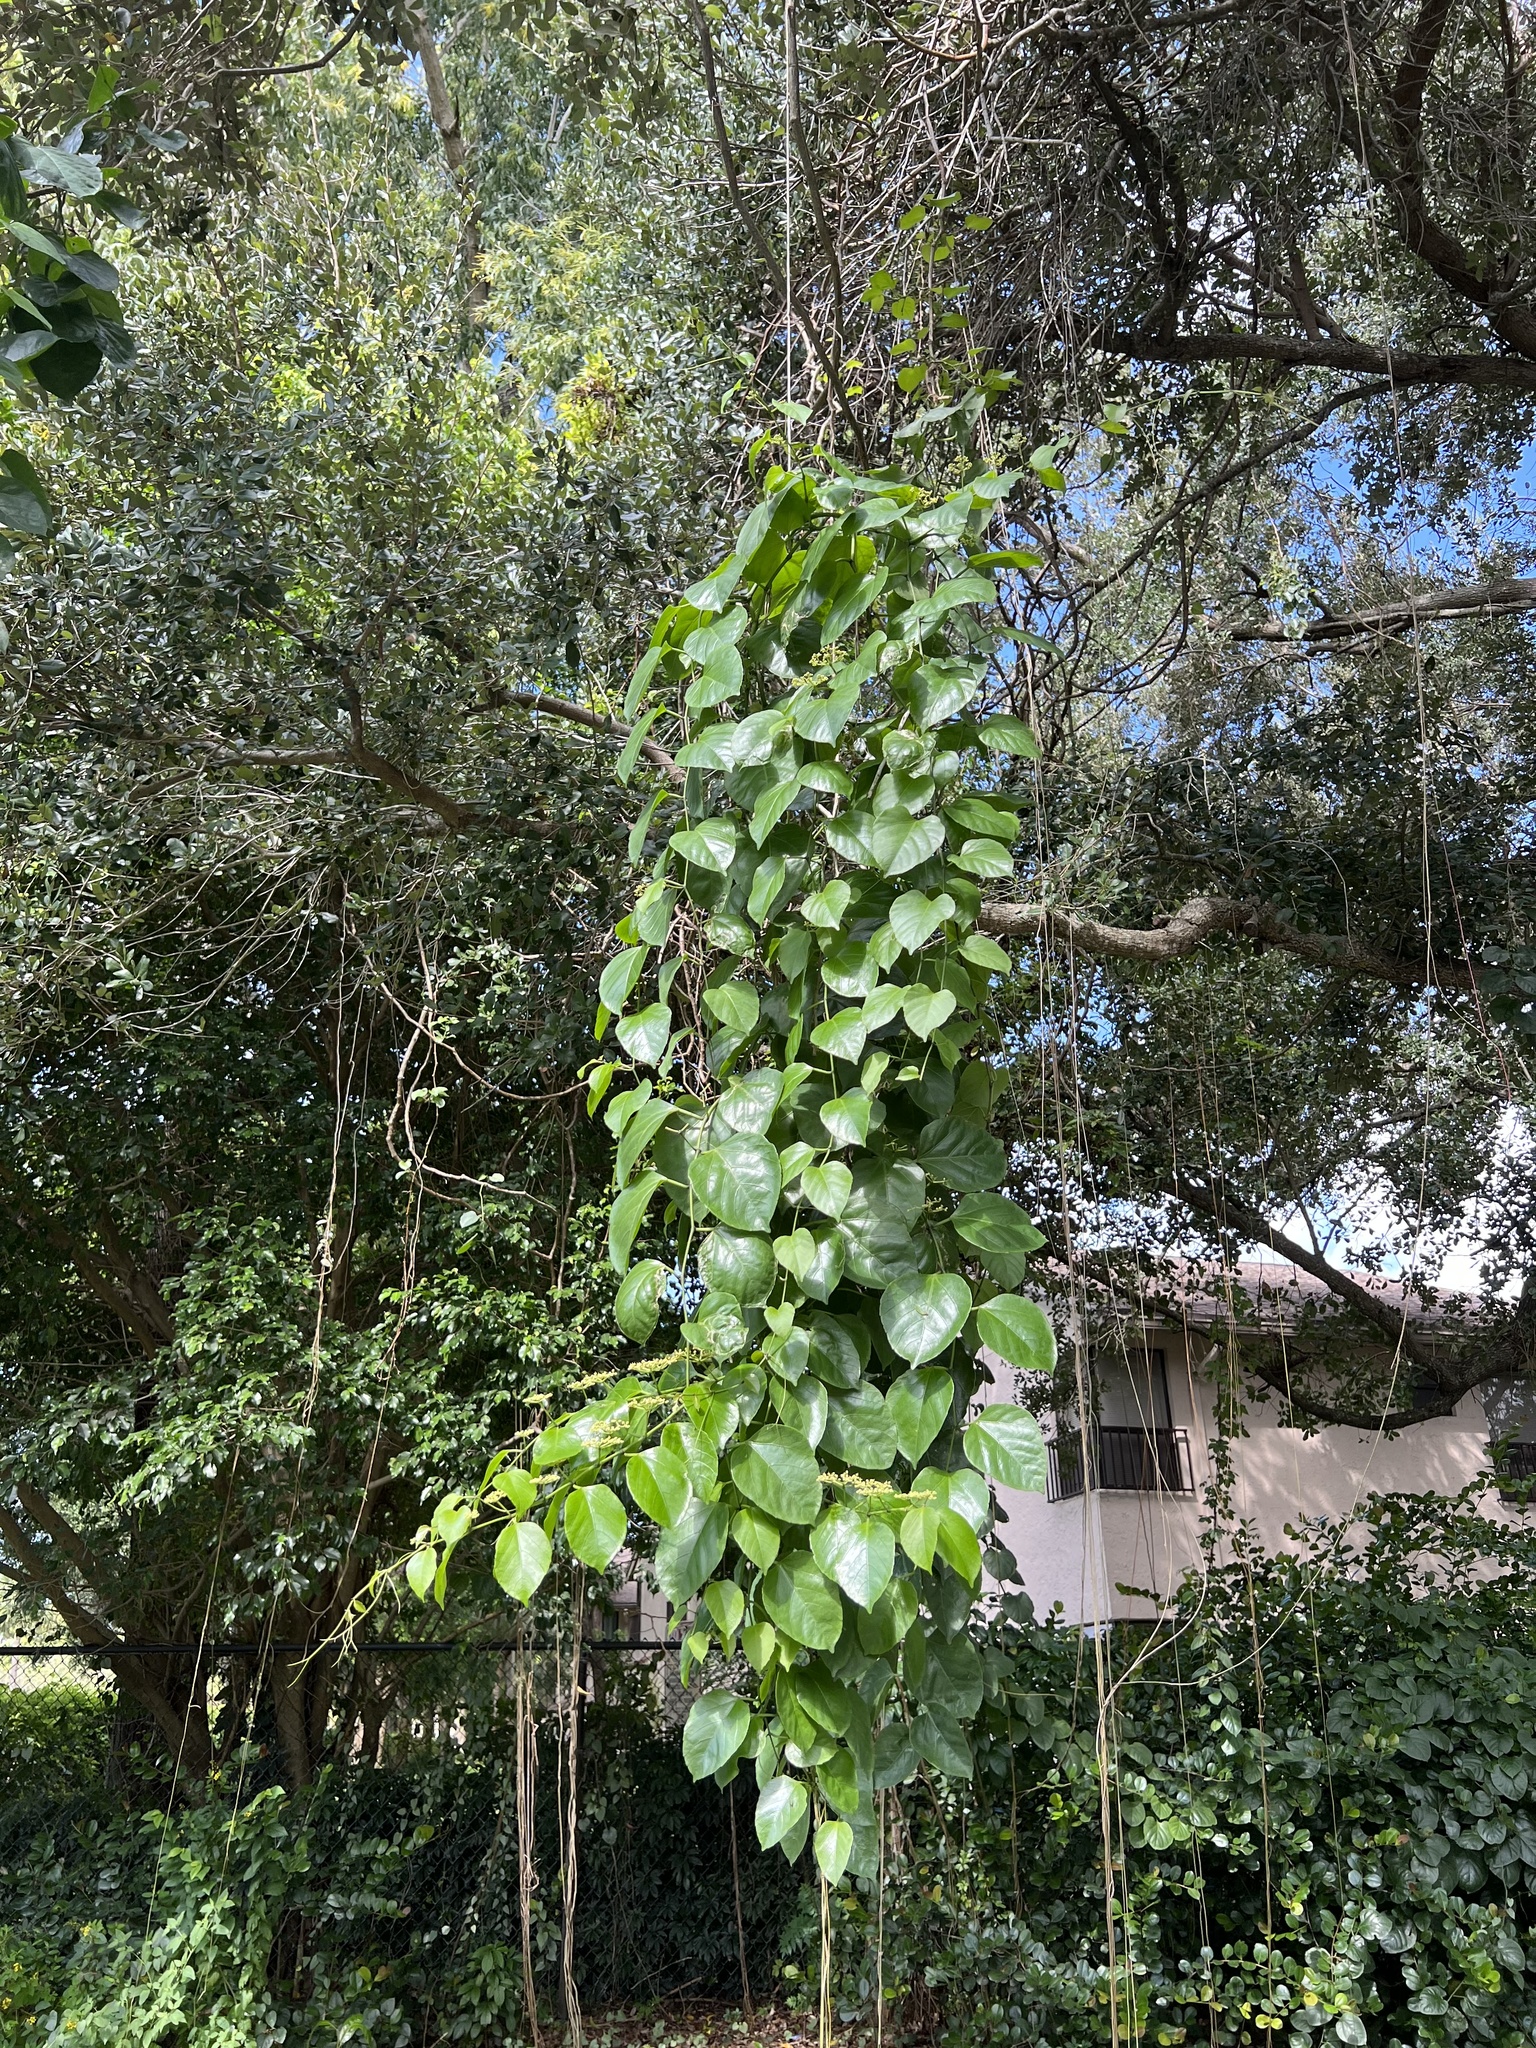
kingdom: Plantae
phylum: Tracheophyta
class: Magnoliopsida
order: Vitales
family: Vitaceae
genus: Cissus
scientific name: Cissus verticillata
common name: Princess vine
